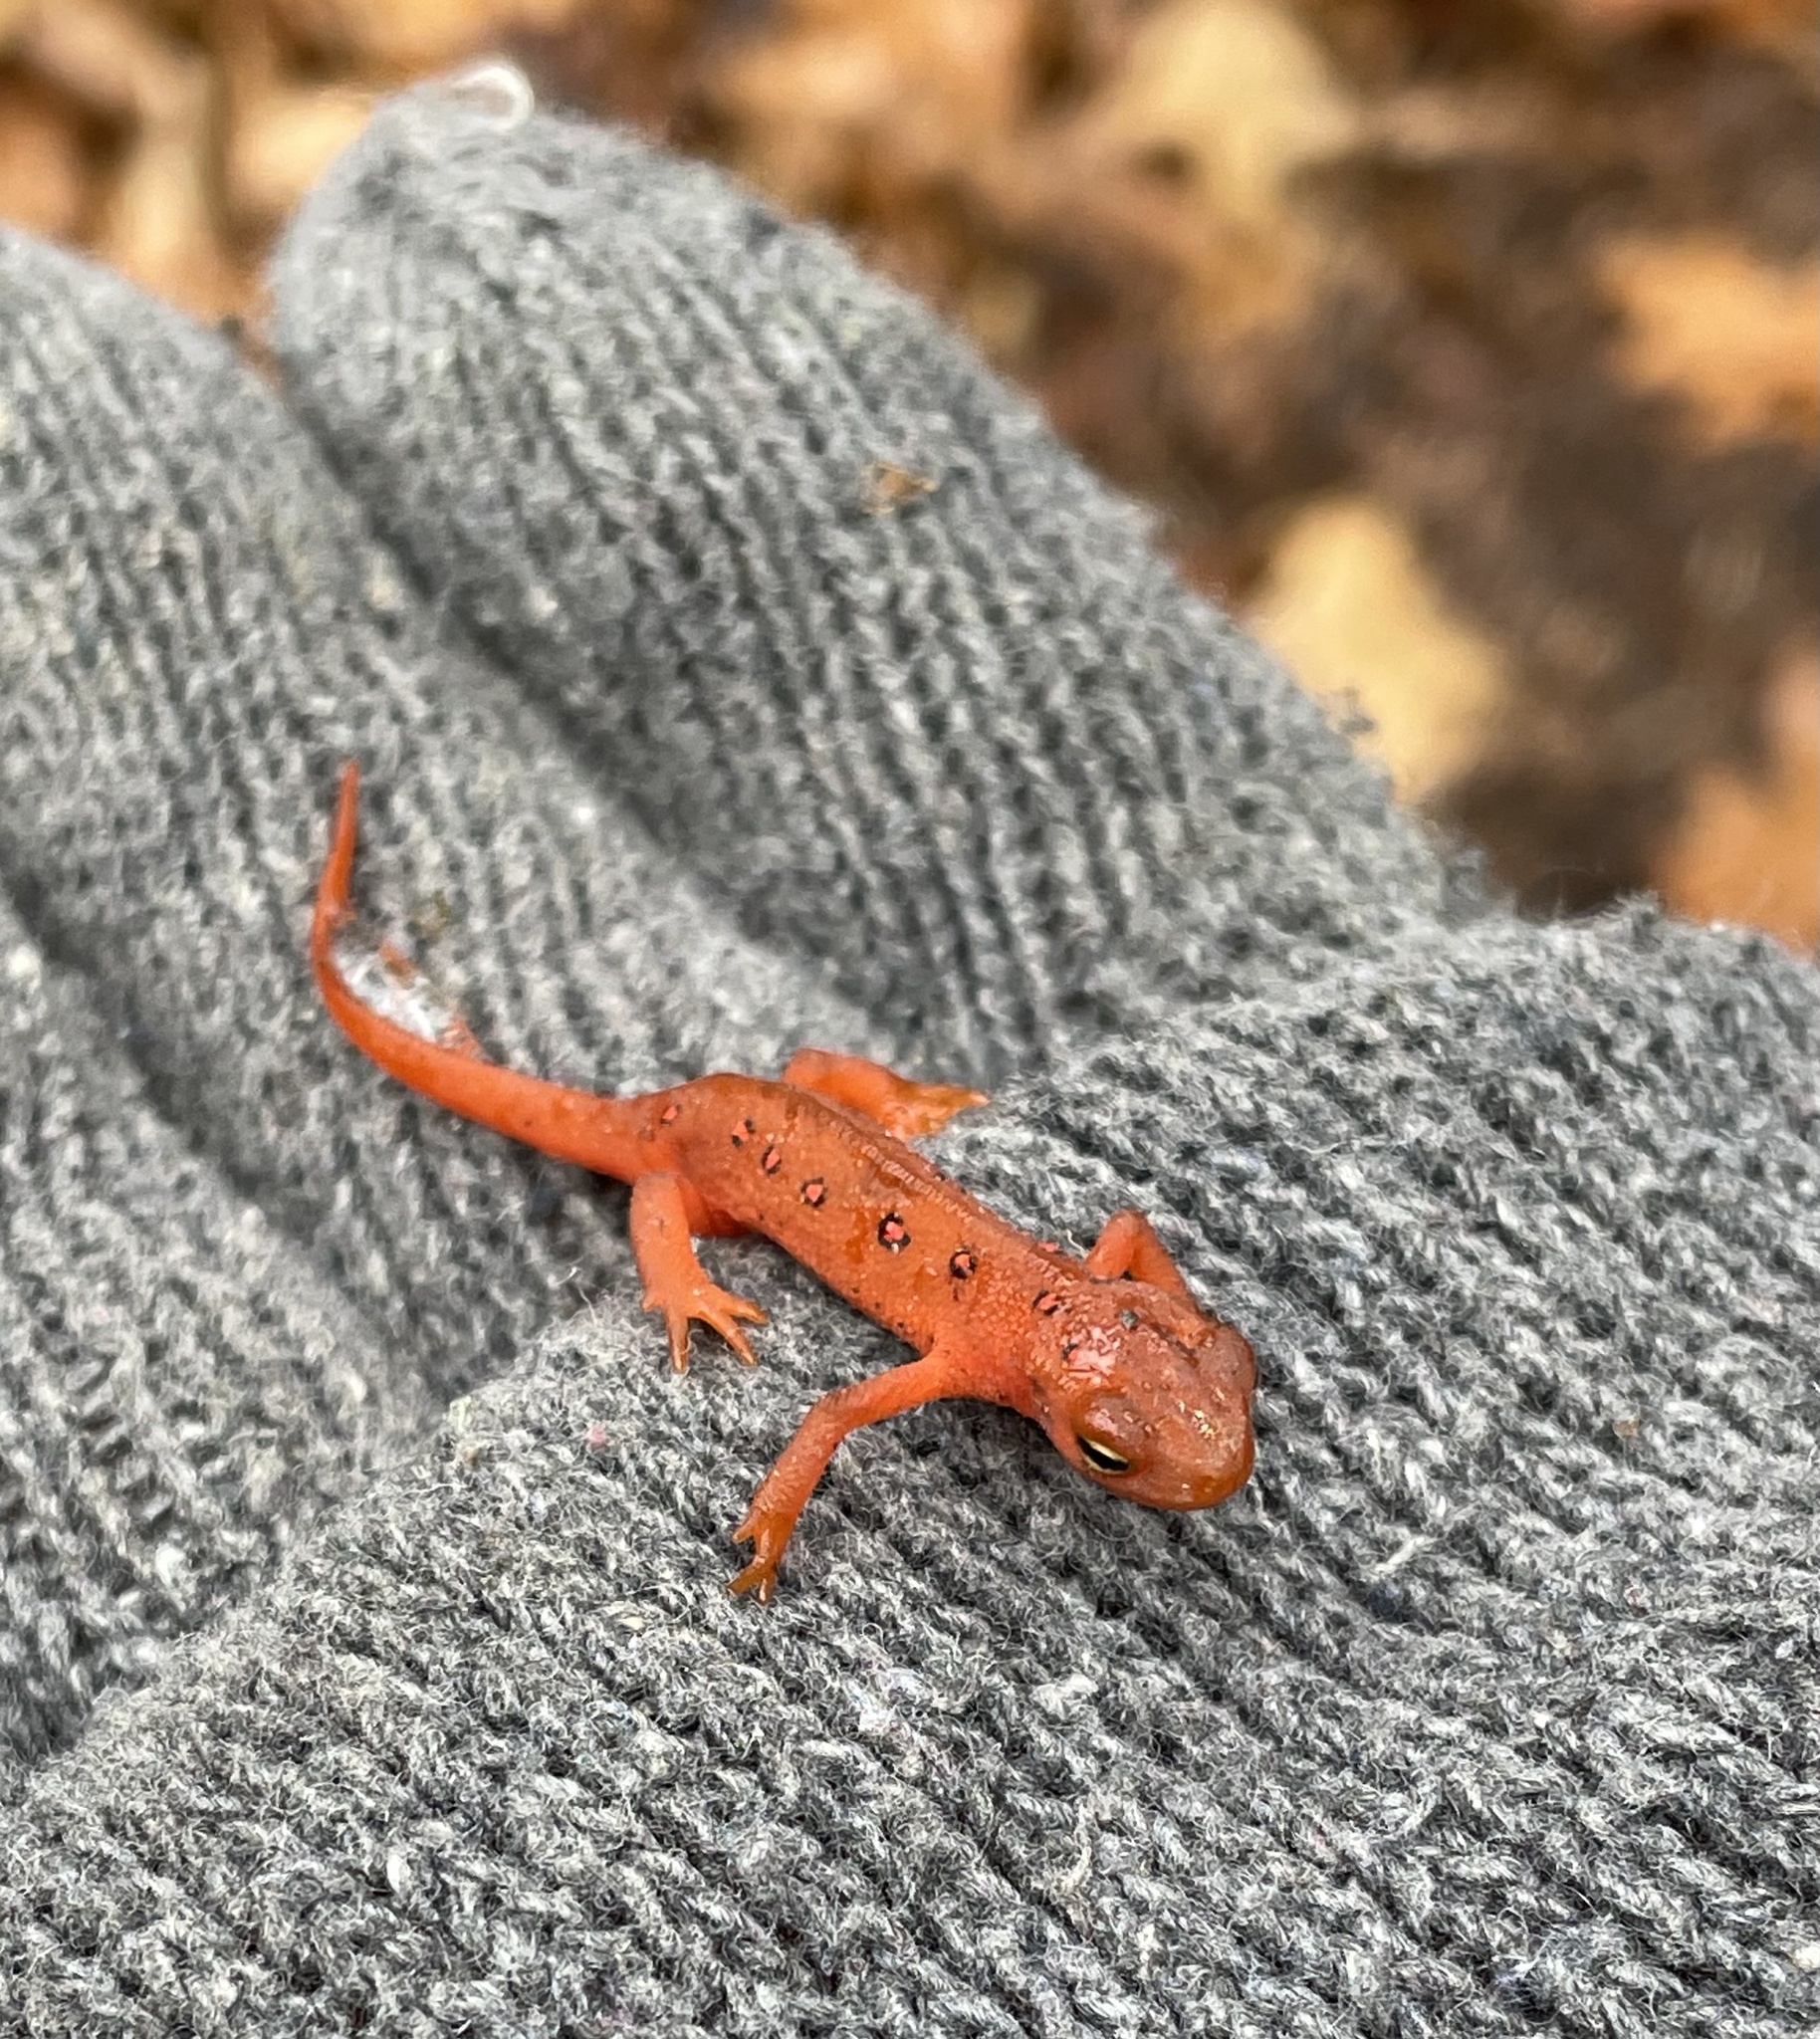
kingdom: Animalia
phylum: Chordata
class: Amphibia
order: Caudata
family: Salamandridae
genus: Notophthalmus
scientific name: Notophthalmus viridescens
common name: Eastern newt
